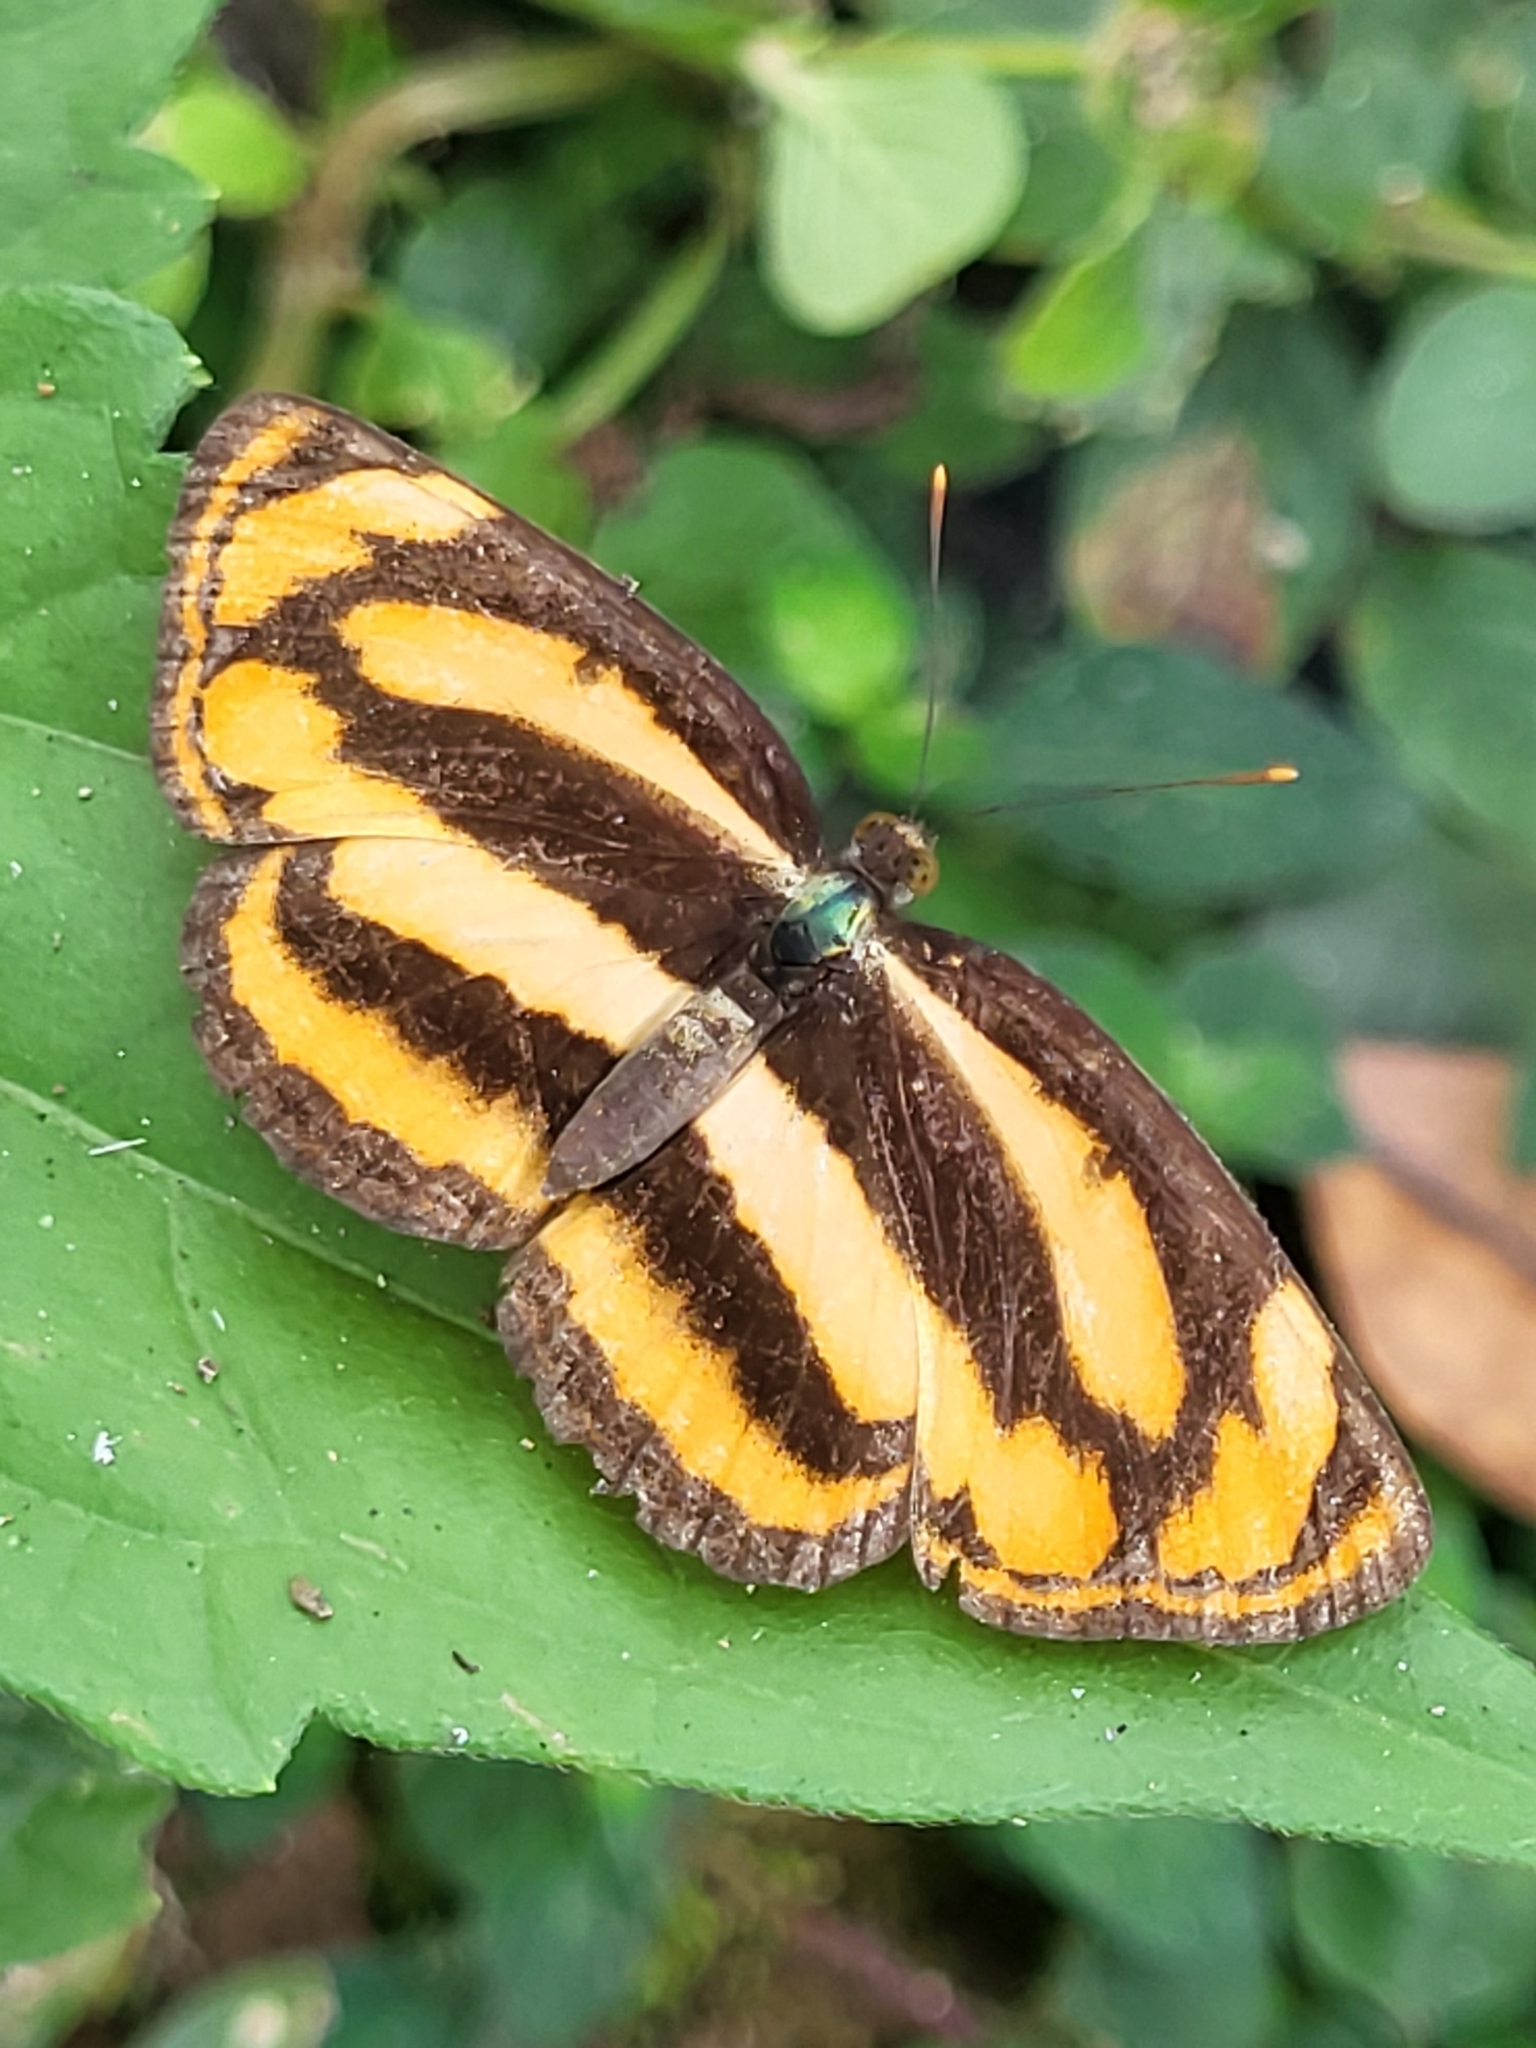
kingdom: Animalia
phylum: Arthropoda
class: Insecta
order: Lepidoptera
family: Nymphalidae
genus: Pantoporia
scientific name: Pantoporia hordonia
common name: Common lascar
